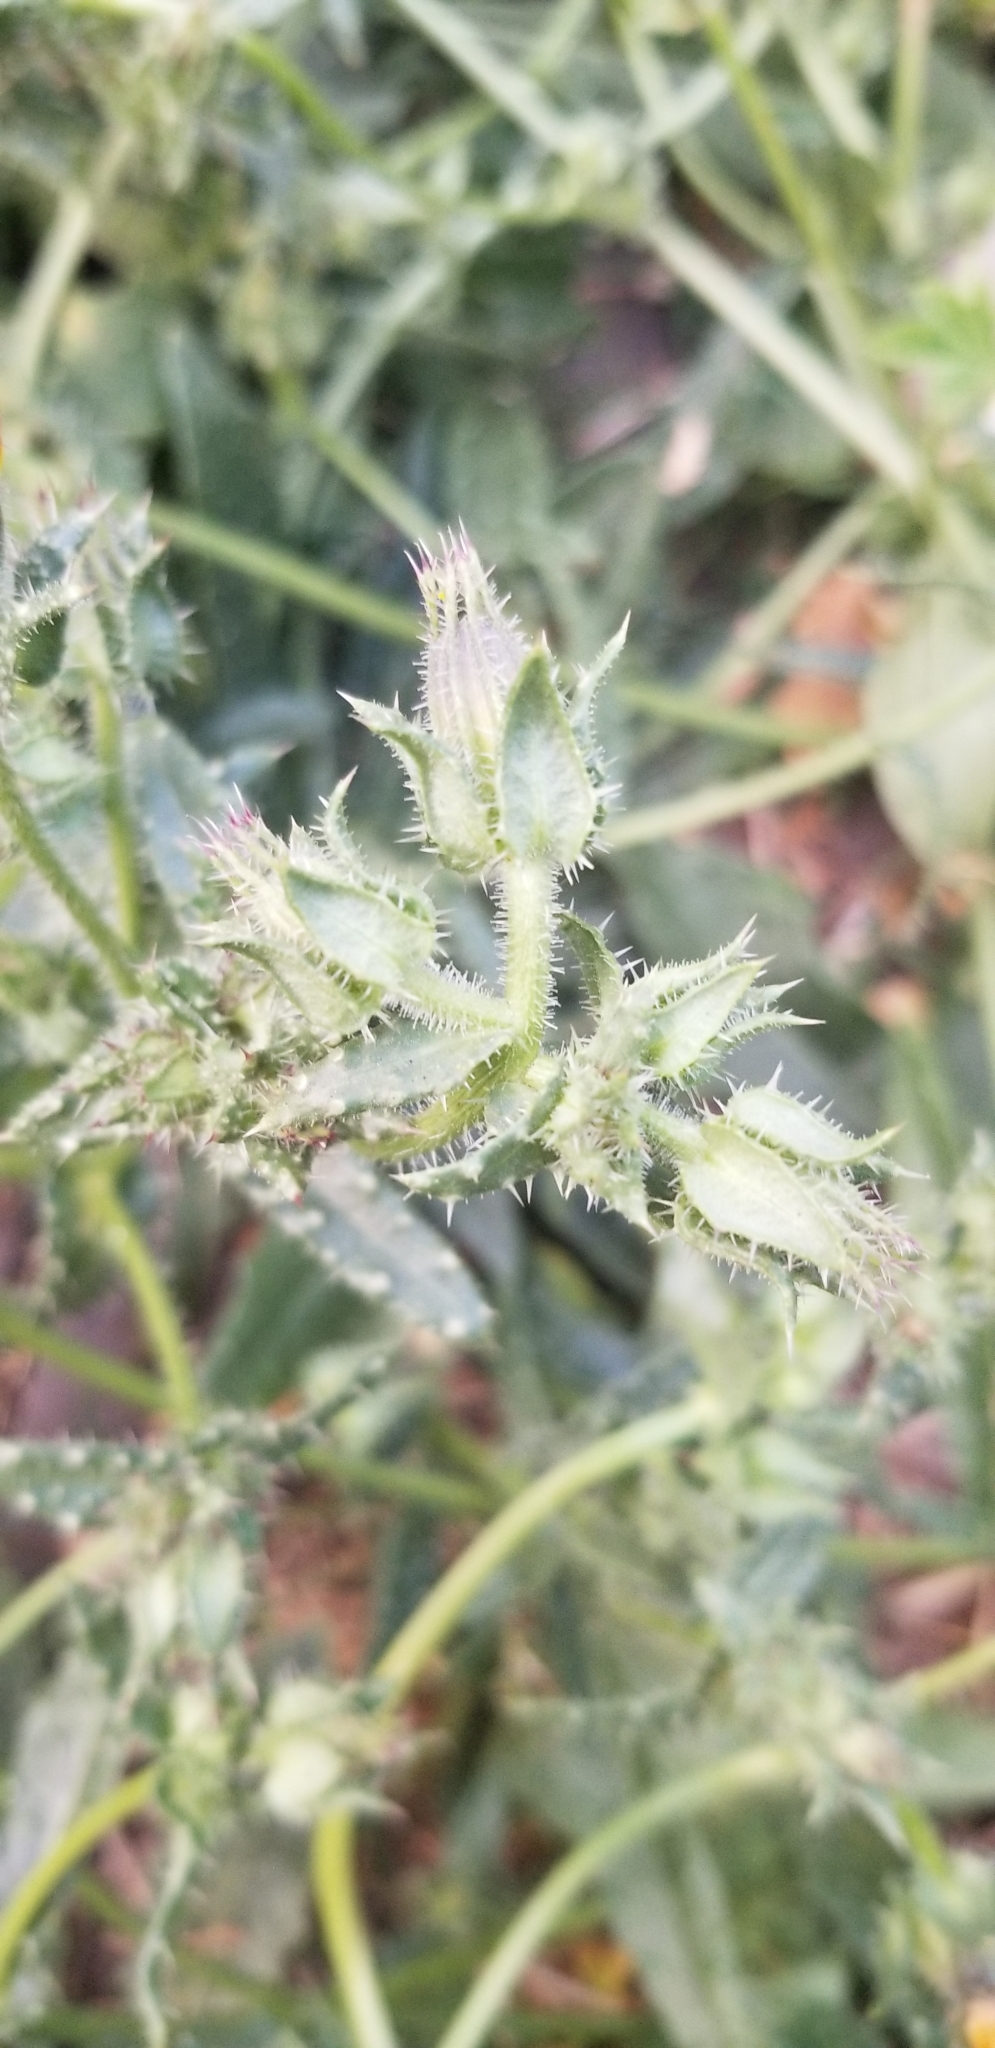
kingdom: Plantae
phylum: Tracheophyta
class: Magnoliopsida
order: Asterales
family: Asteraceae
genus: Helminthotheca
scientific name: Helminthotheca echioides
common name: Ox-tongue
